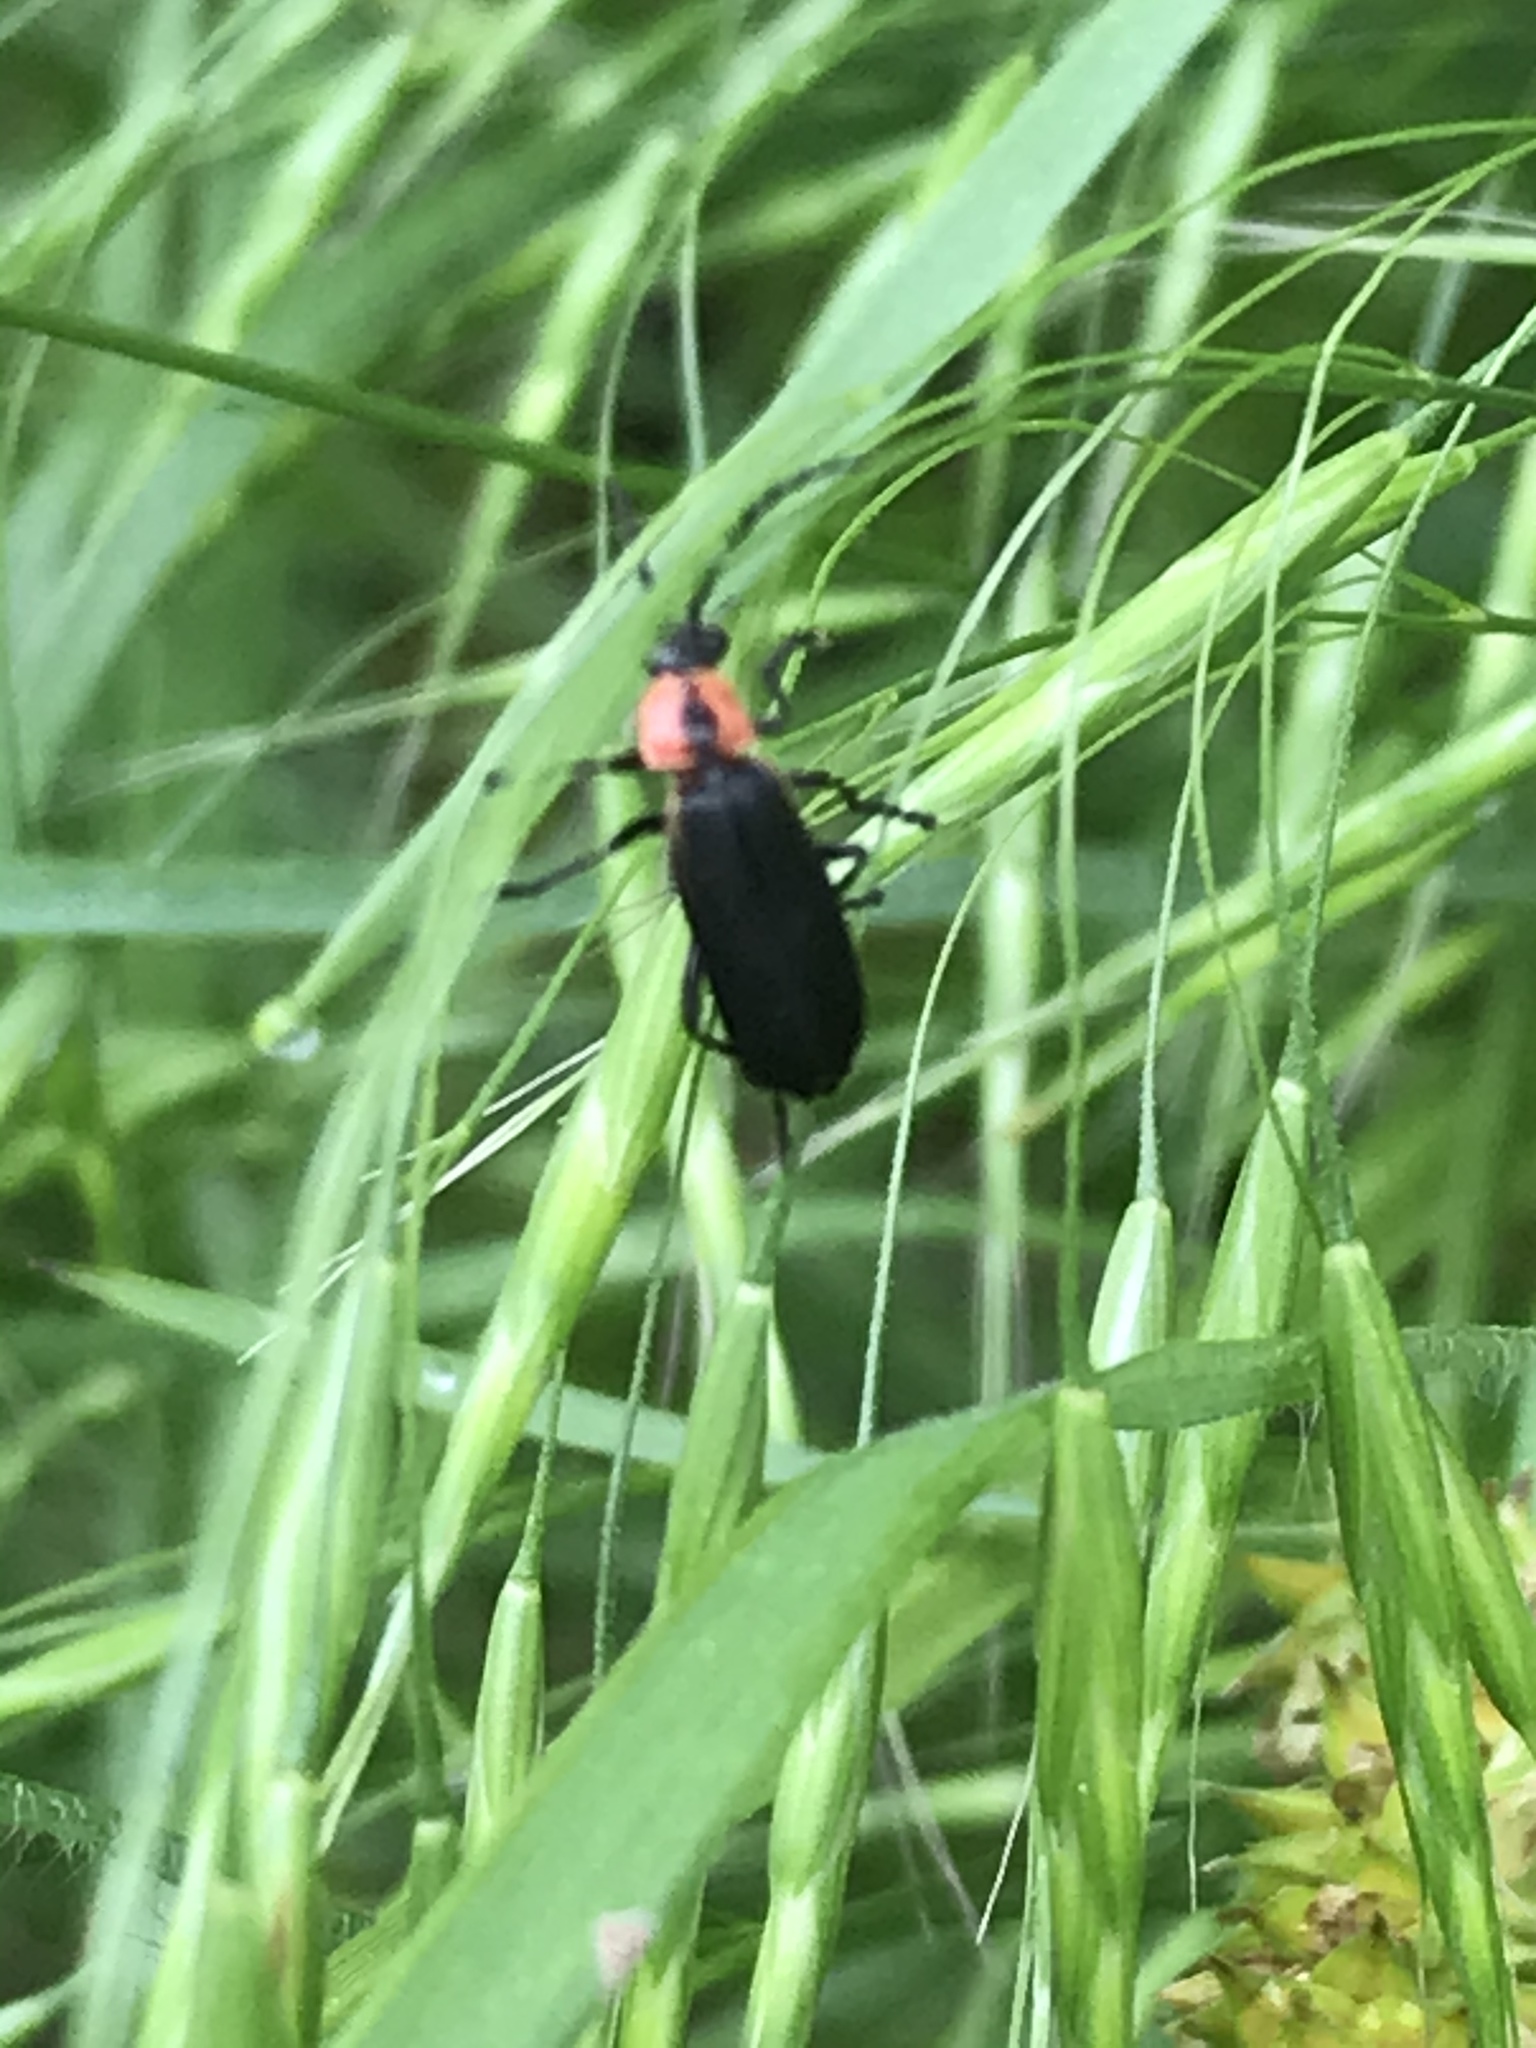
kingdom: Animalia
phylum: Arthropoda
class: Insecta
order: Coleoptera
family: Cantharidae
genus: Discodon
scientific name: Discodon planicolle
